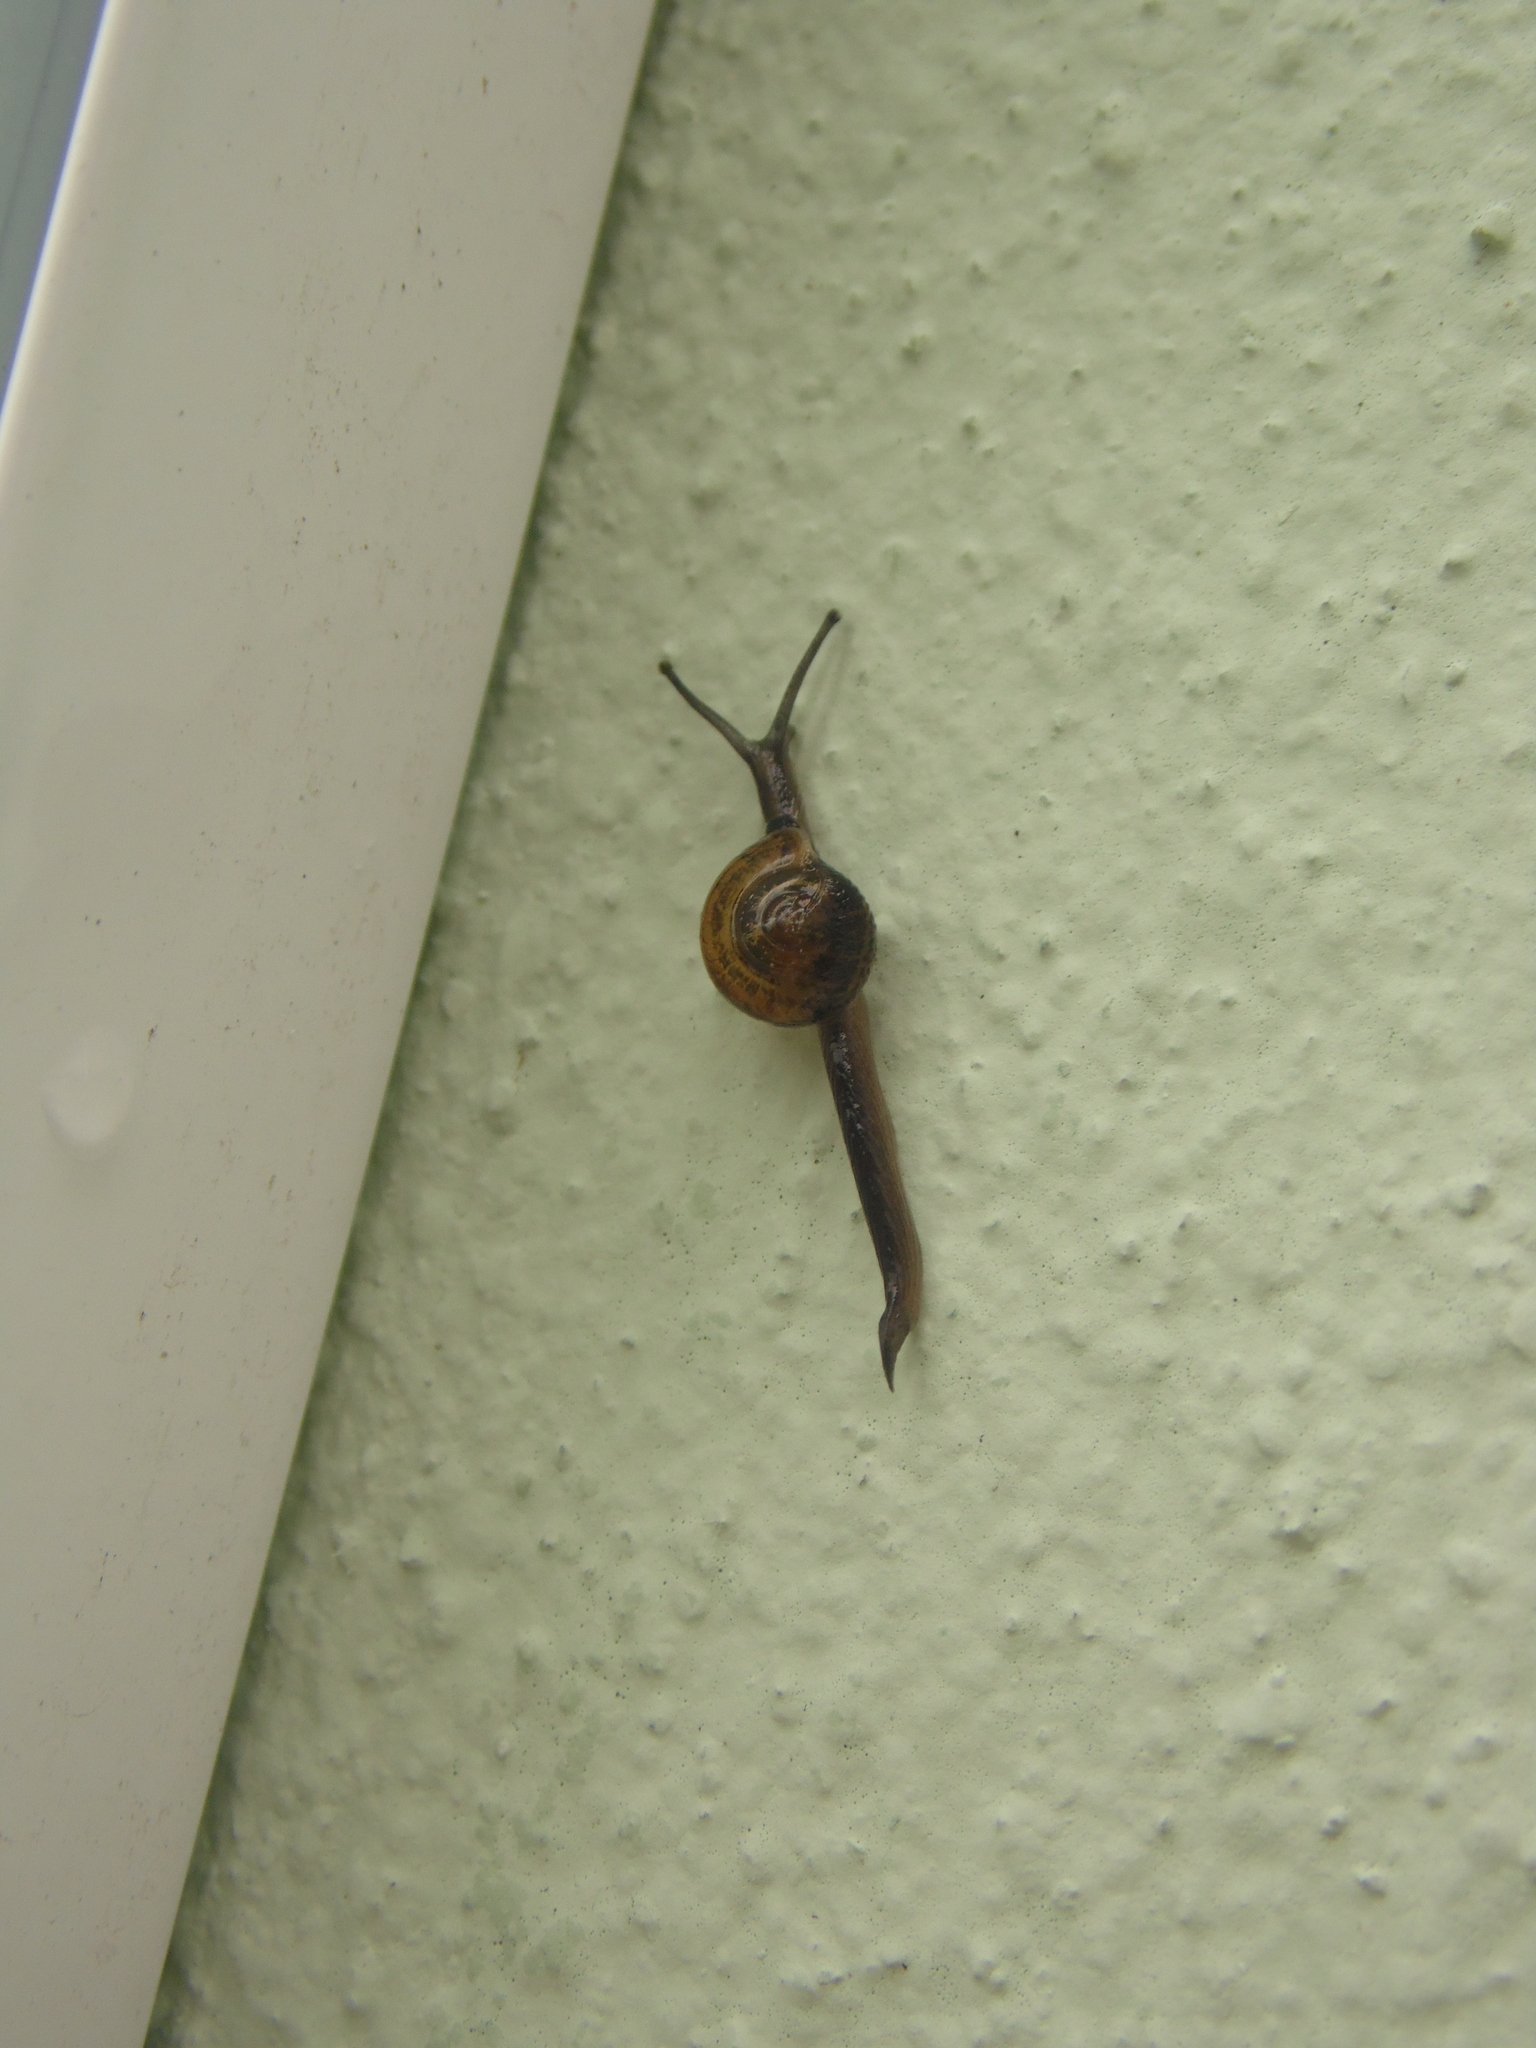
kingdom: Animalia
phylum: Mollusca
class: Gastropoda
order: Stylommatophora
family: Helicarionidae
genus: Ovachlamys
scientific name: Ovachlamys fulgens
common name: Jumping snail
